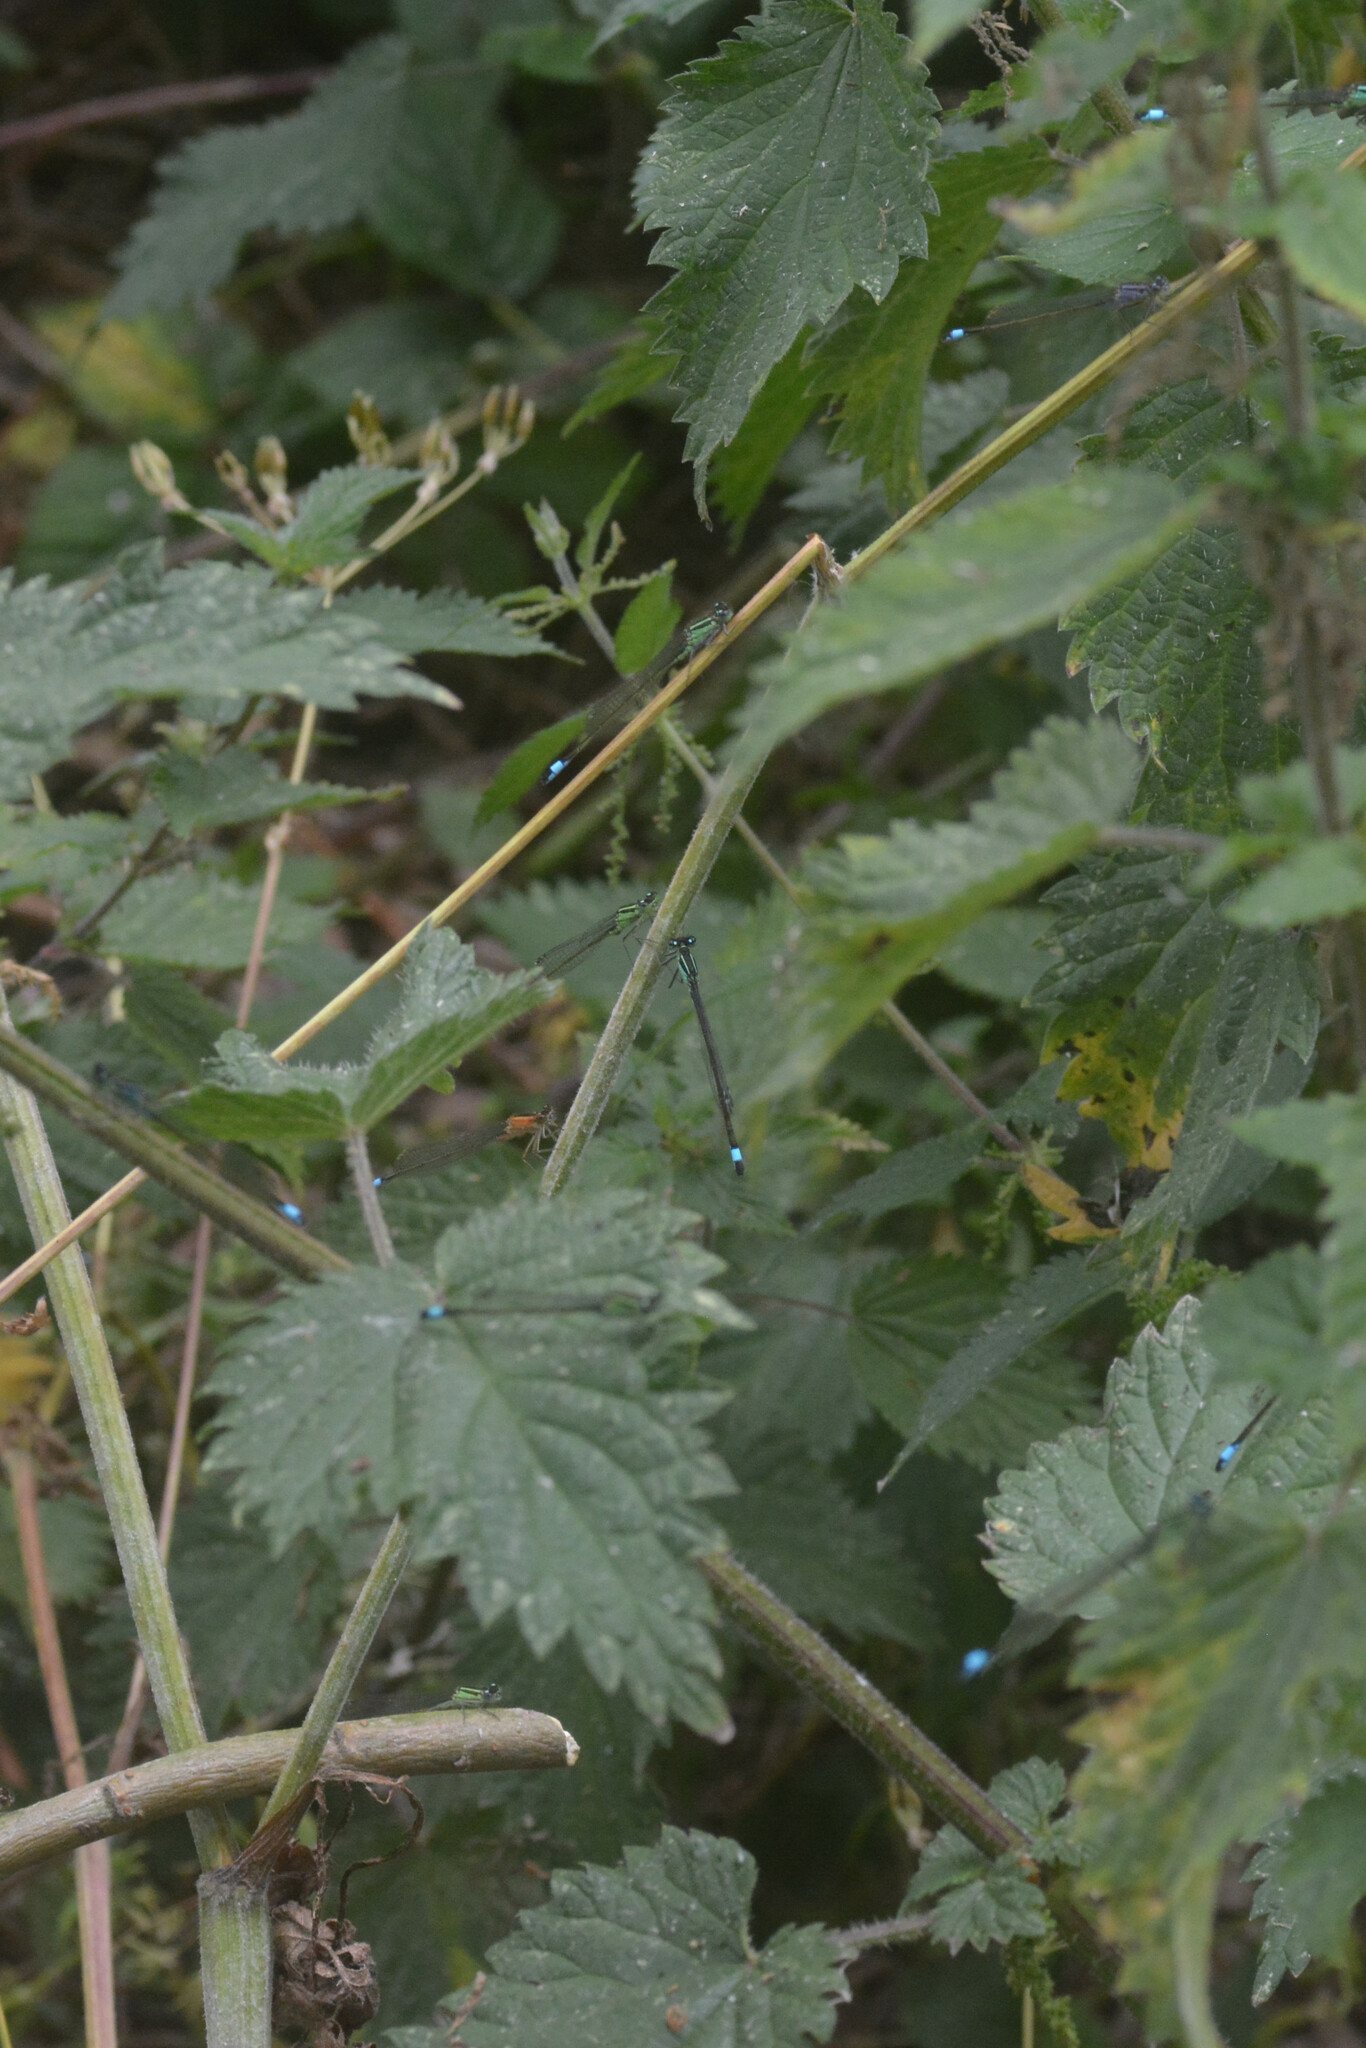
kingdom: Animalia
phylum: Arthropoda
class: Insecta
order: Odonata
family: Coenagrionidae
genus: Ischnura
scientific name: Ischnura elegans
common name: Blue-tailed damselfly
